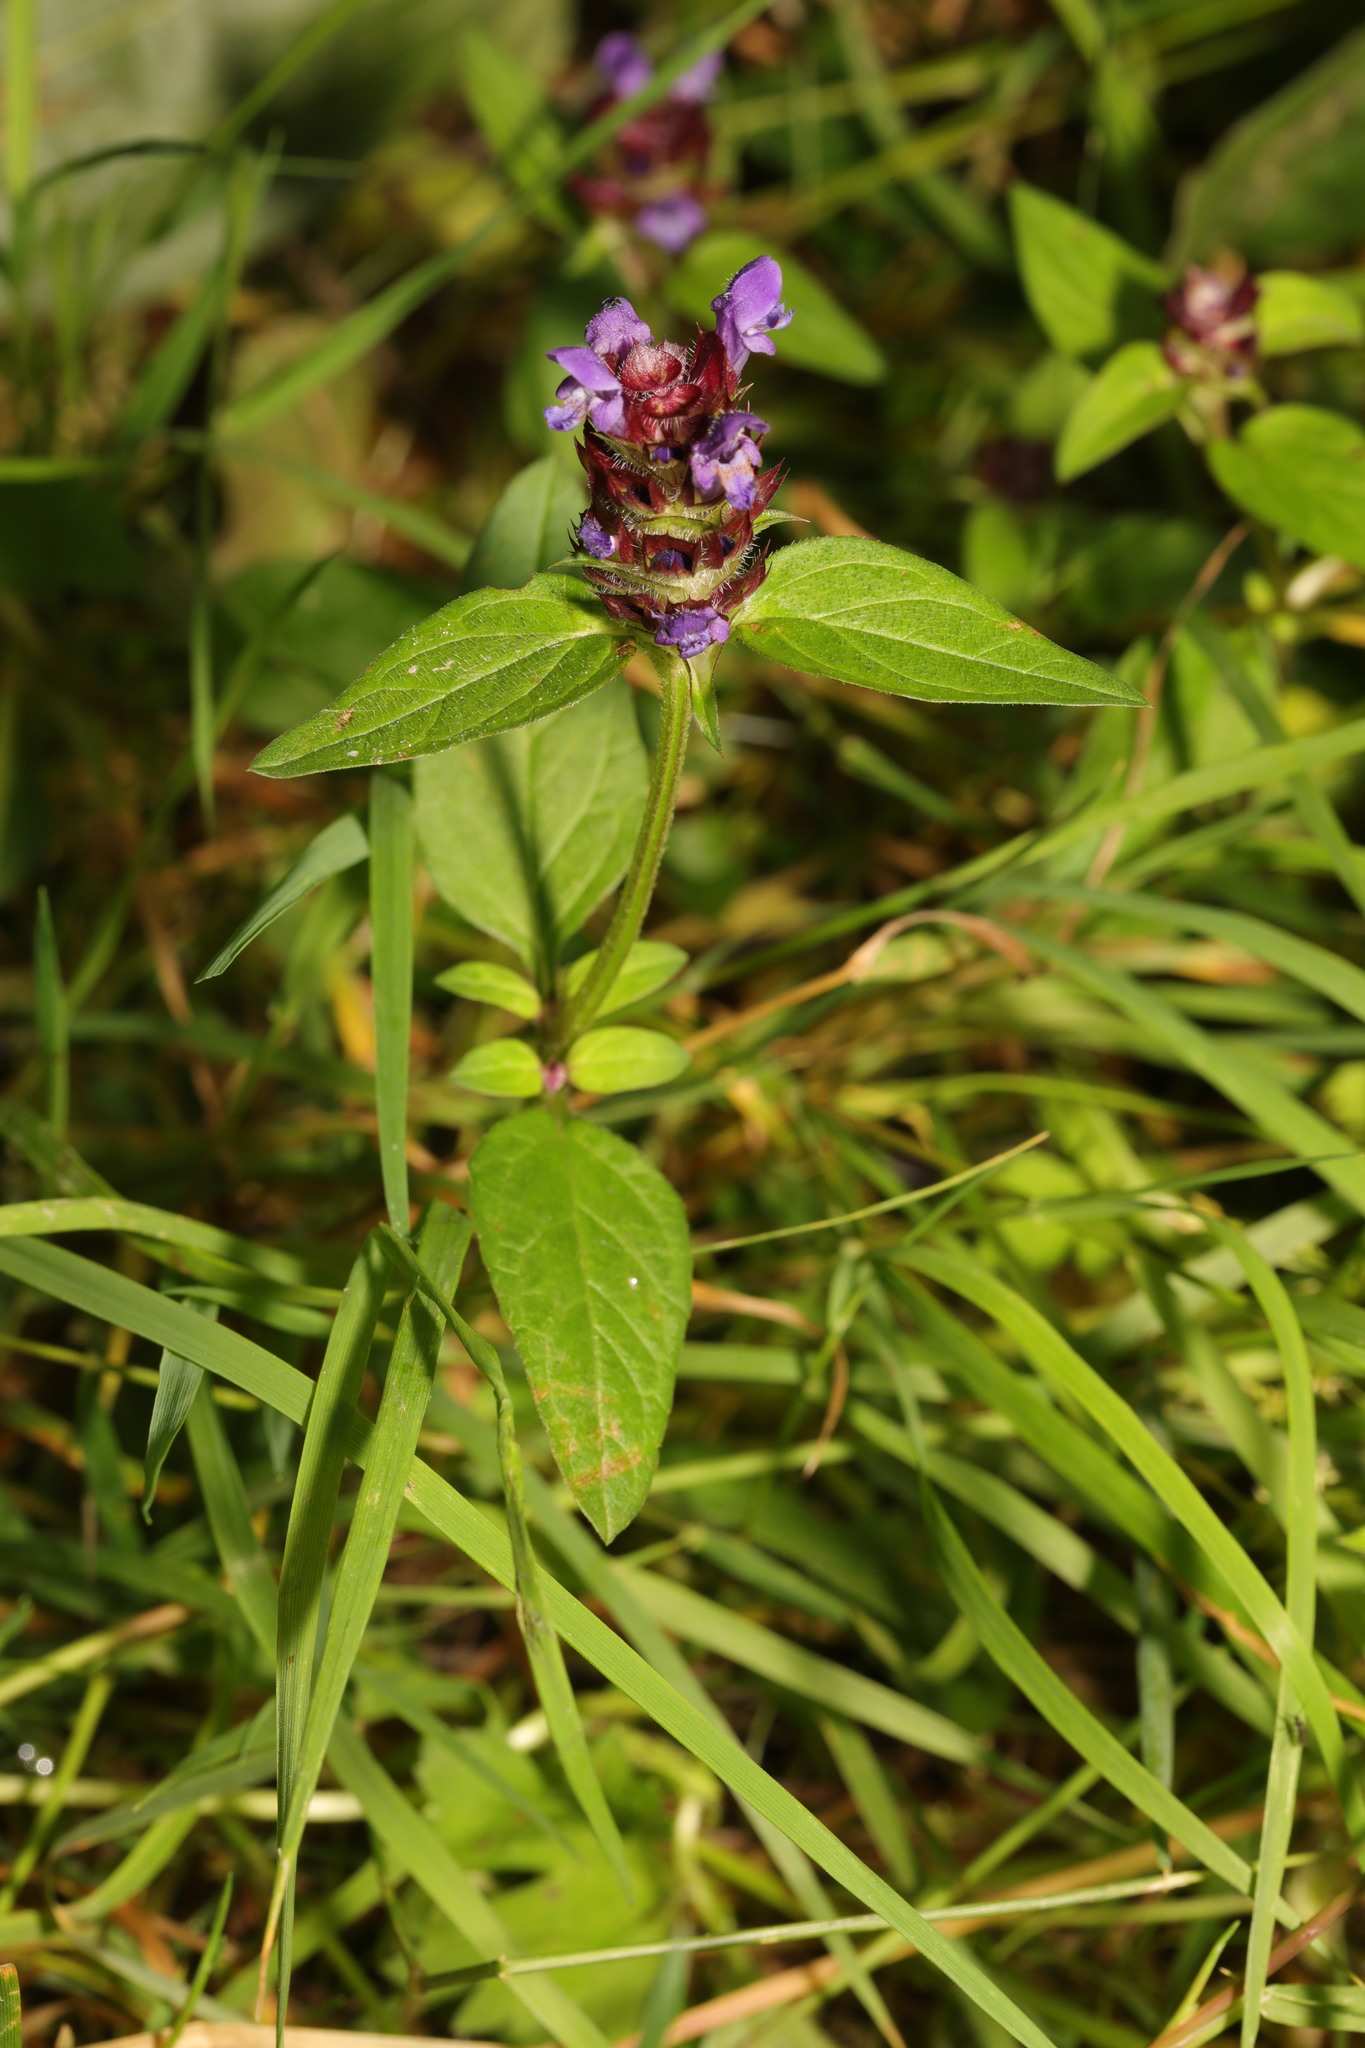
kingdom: Plantae
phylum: Tracheophyta
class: Magnoliopsida
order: Lamiales
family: Lamiaceae
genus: Prunella
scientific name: Prunella vulgaris
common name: Heal-all
